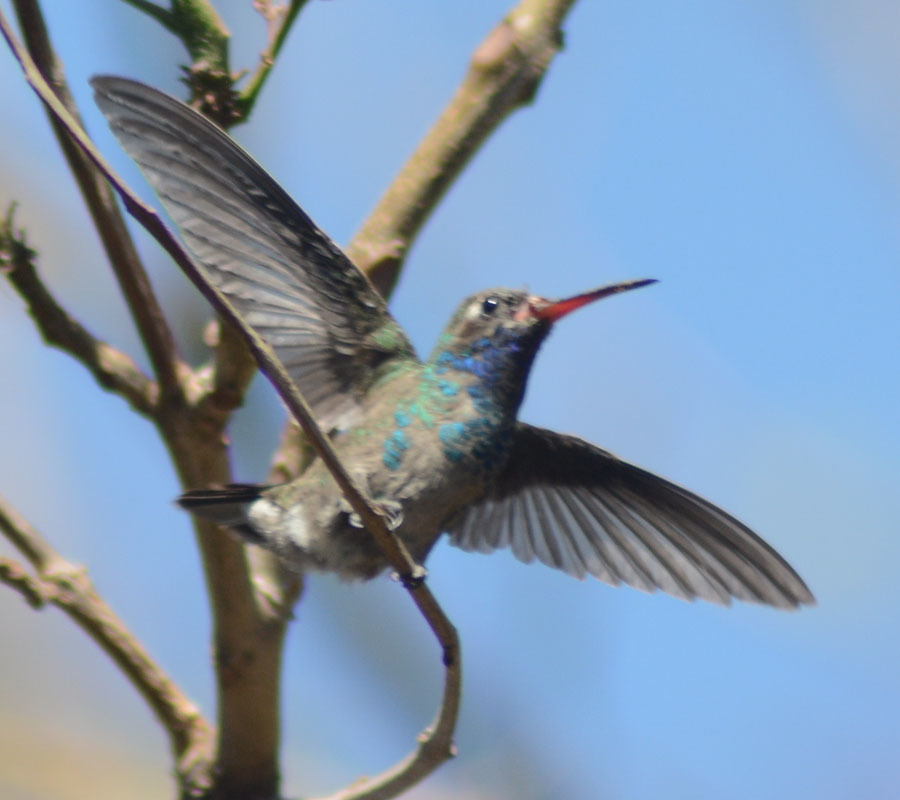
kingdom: Animalia
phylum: Chordata
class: Aves
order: Apodiformes
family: Trochilidae
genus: Cynanthus
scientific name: Cynanthus latirostris
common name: Broad-billed hummingbird
